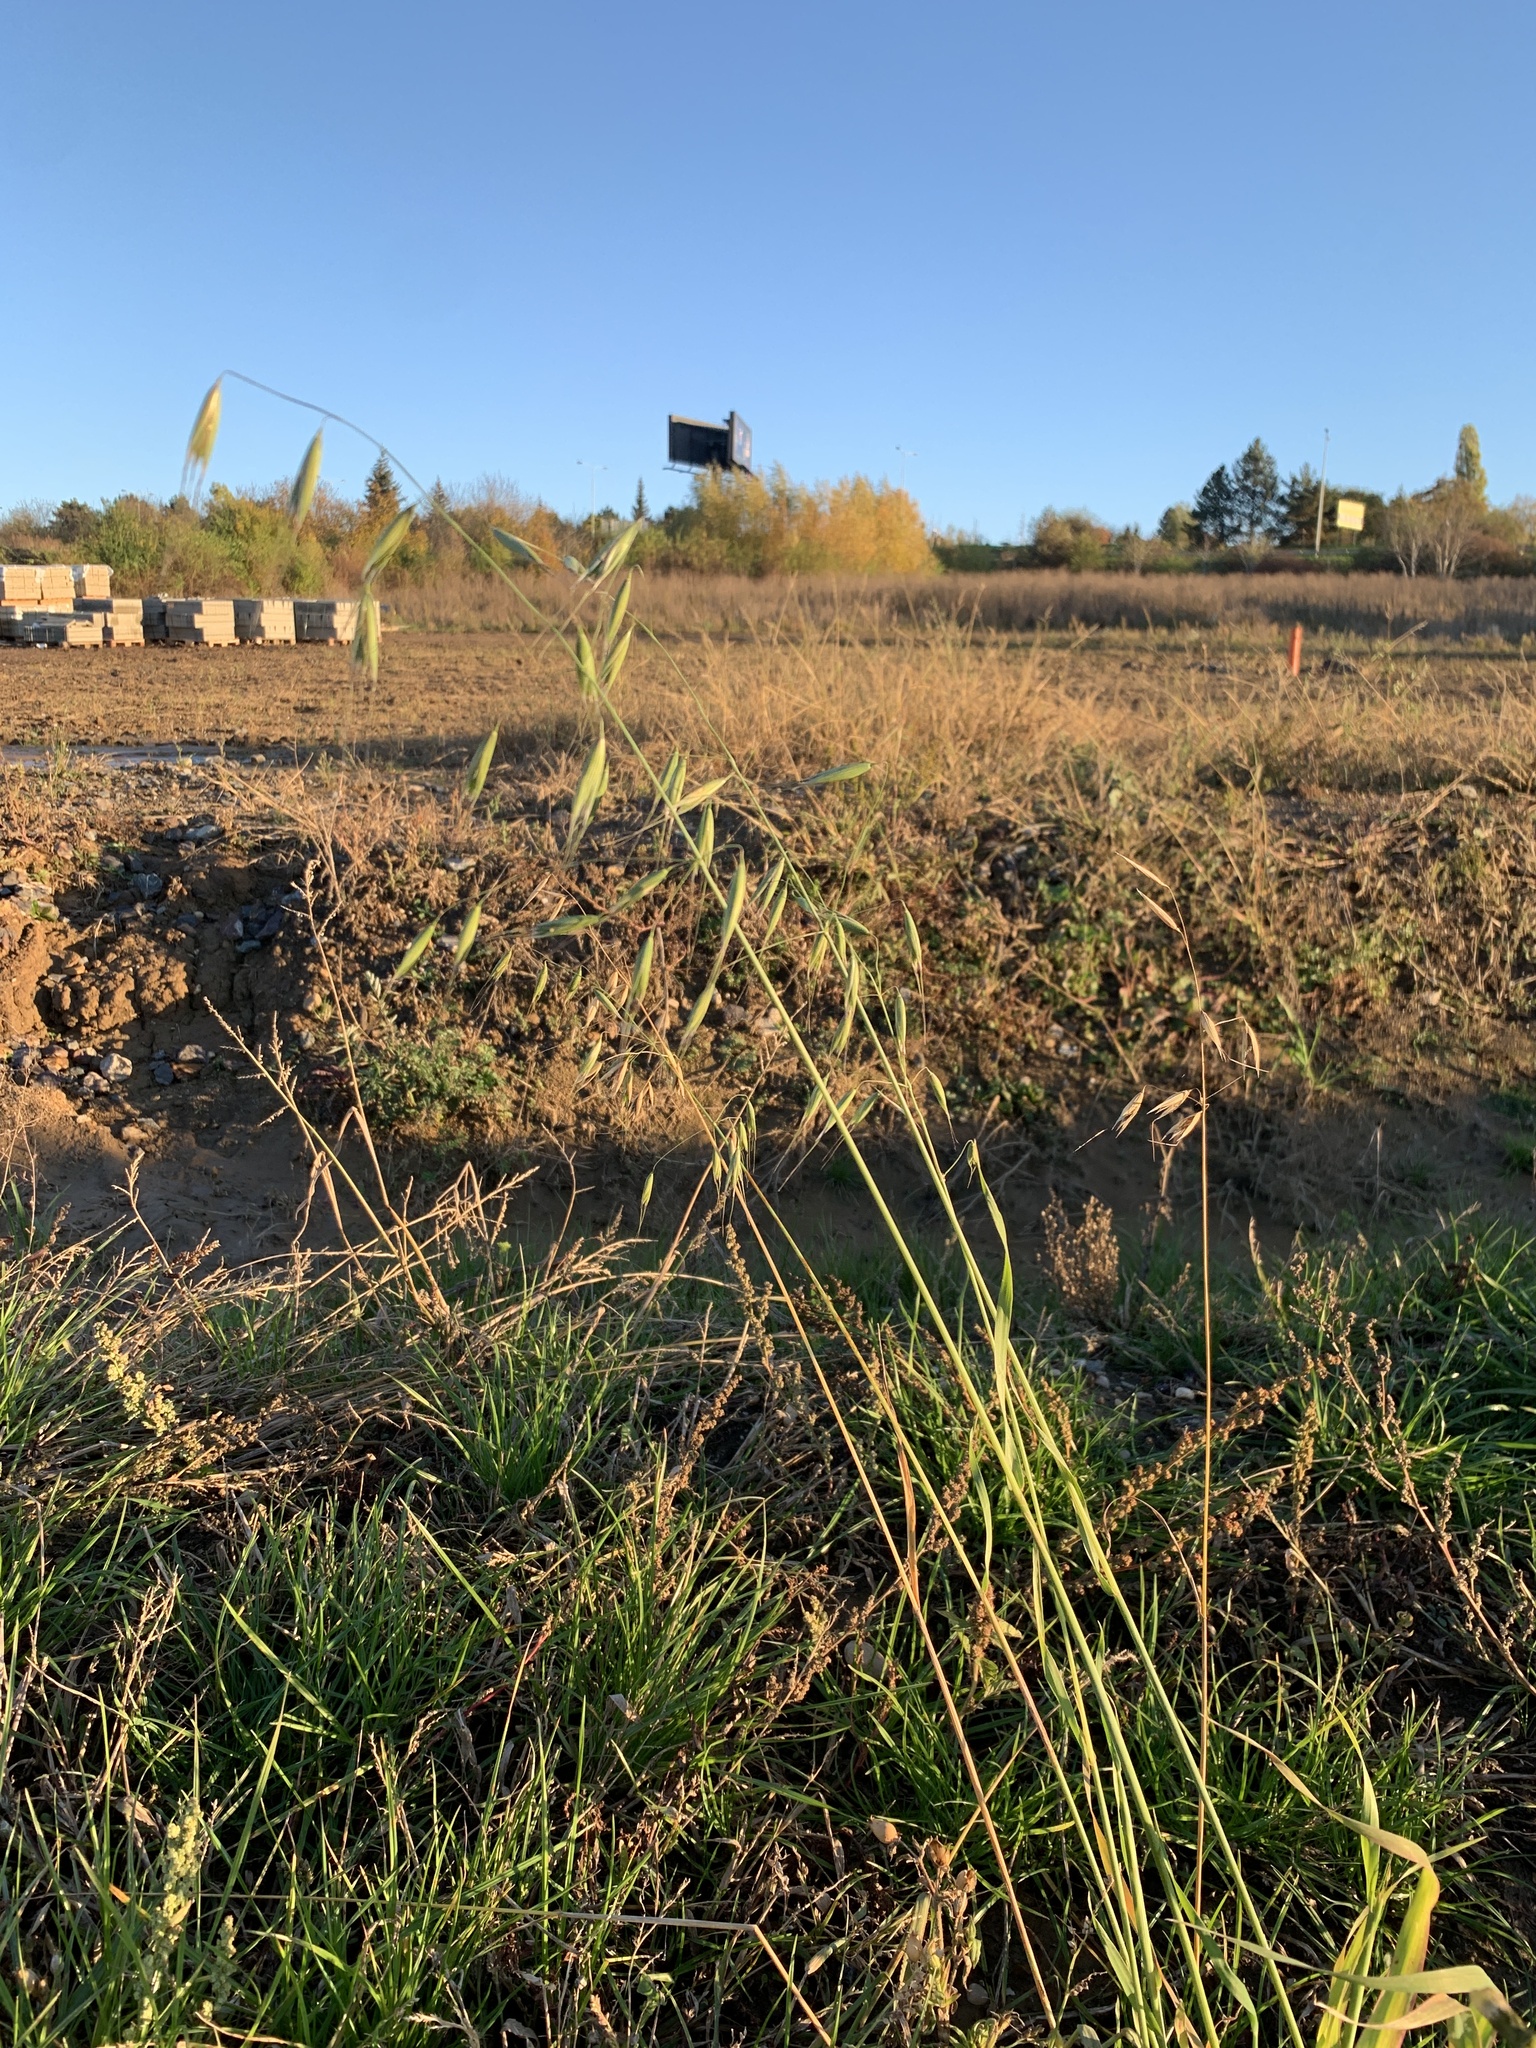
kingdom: Plantae
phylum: Tracheophyta
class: Liliopsida
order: Poales
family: Poaceae
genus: Avena
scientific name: Avena fatua
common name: Wild oat
